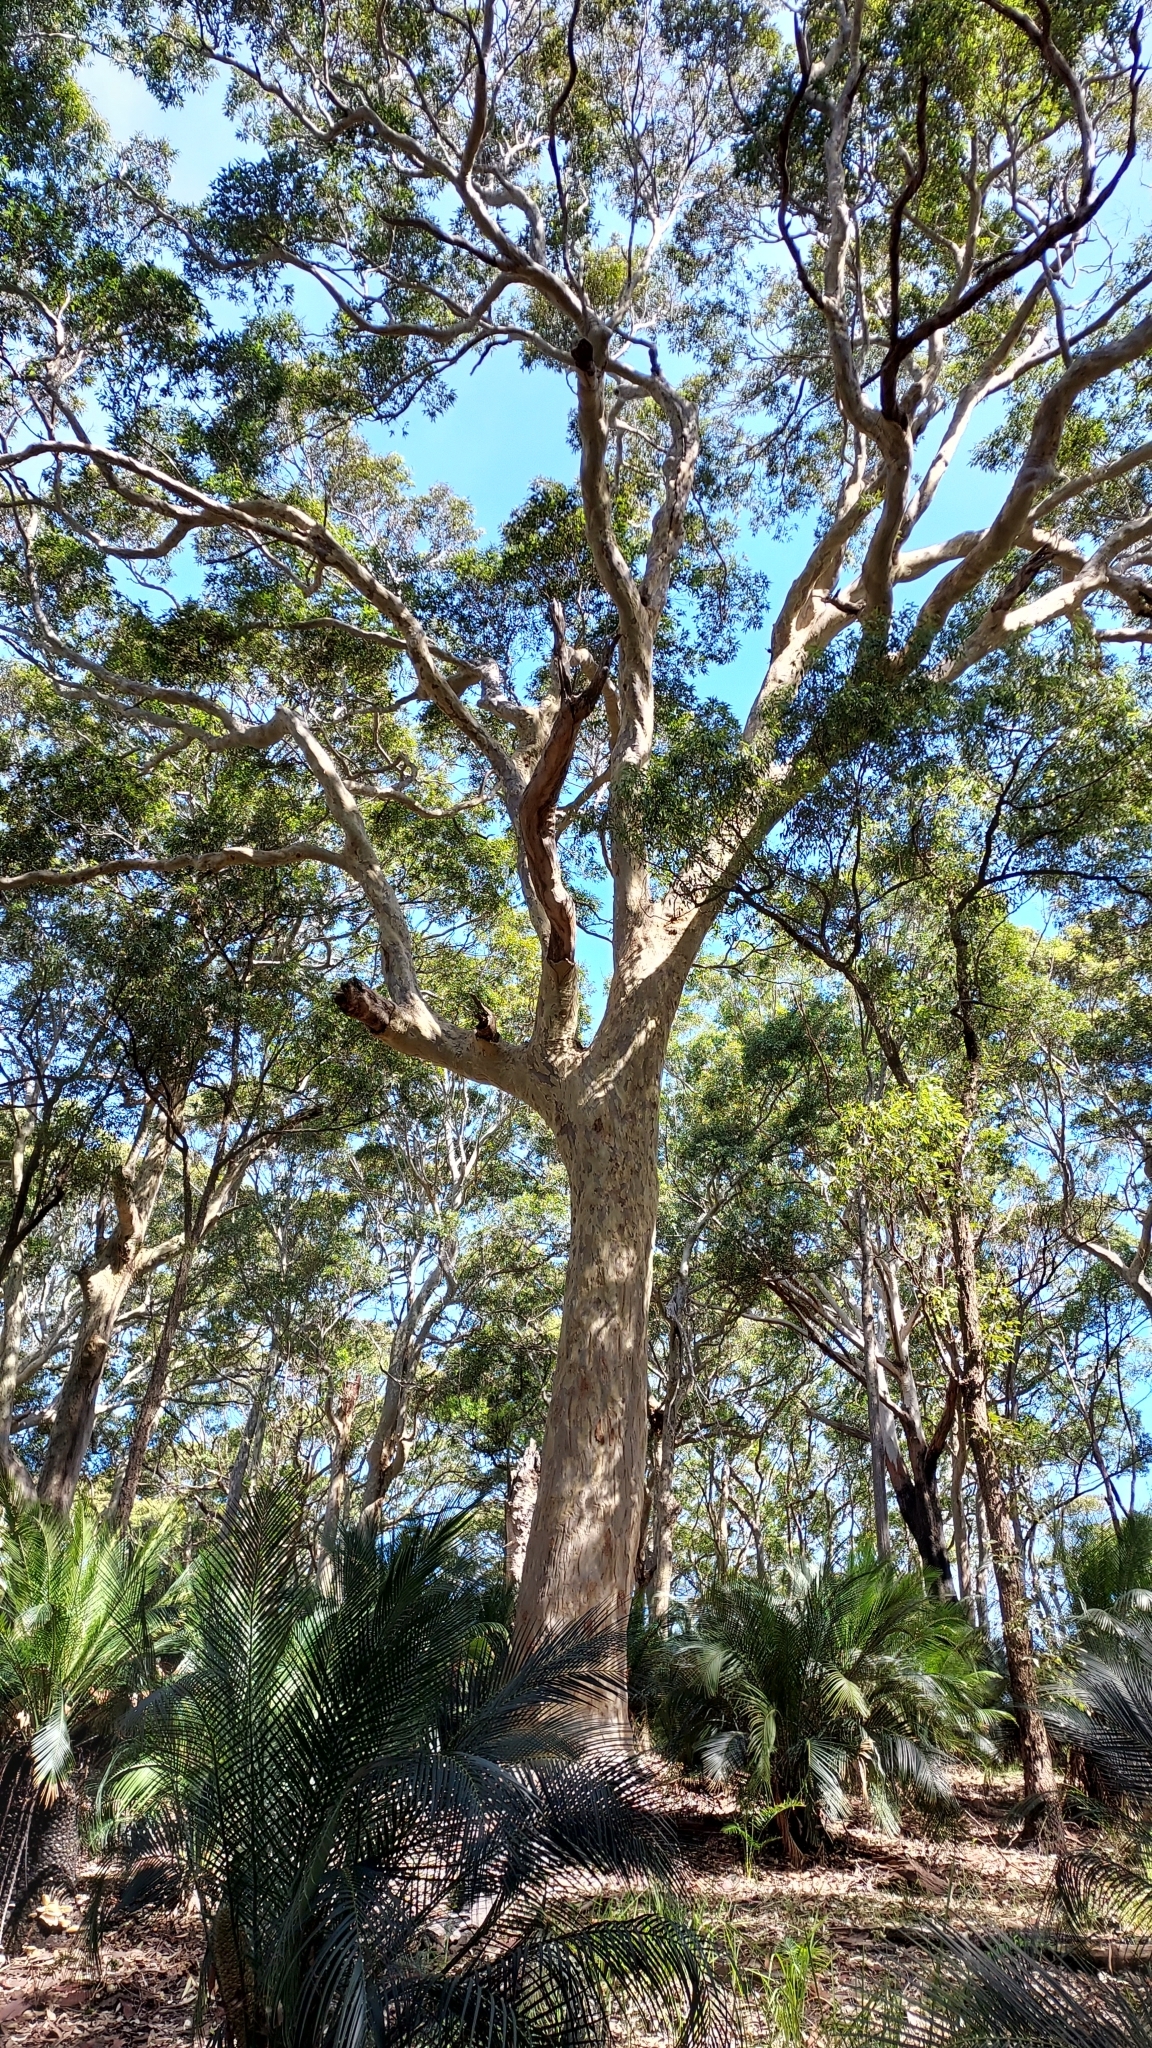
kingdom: Plantae
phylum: Tracheophyta
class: Magnoliopsida
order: Myrtales
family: Myrtaceae
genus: Corymbia
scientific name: Corymbia maculata
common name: Spotted gum
